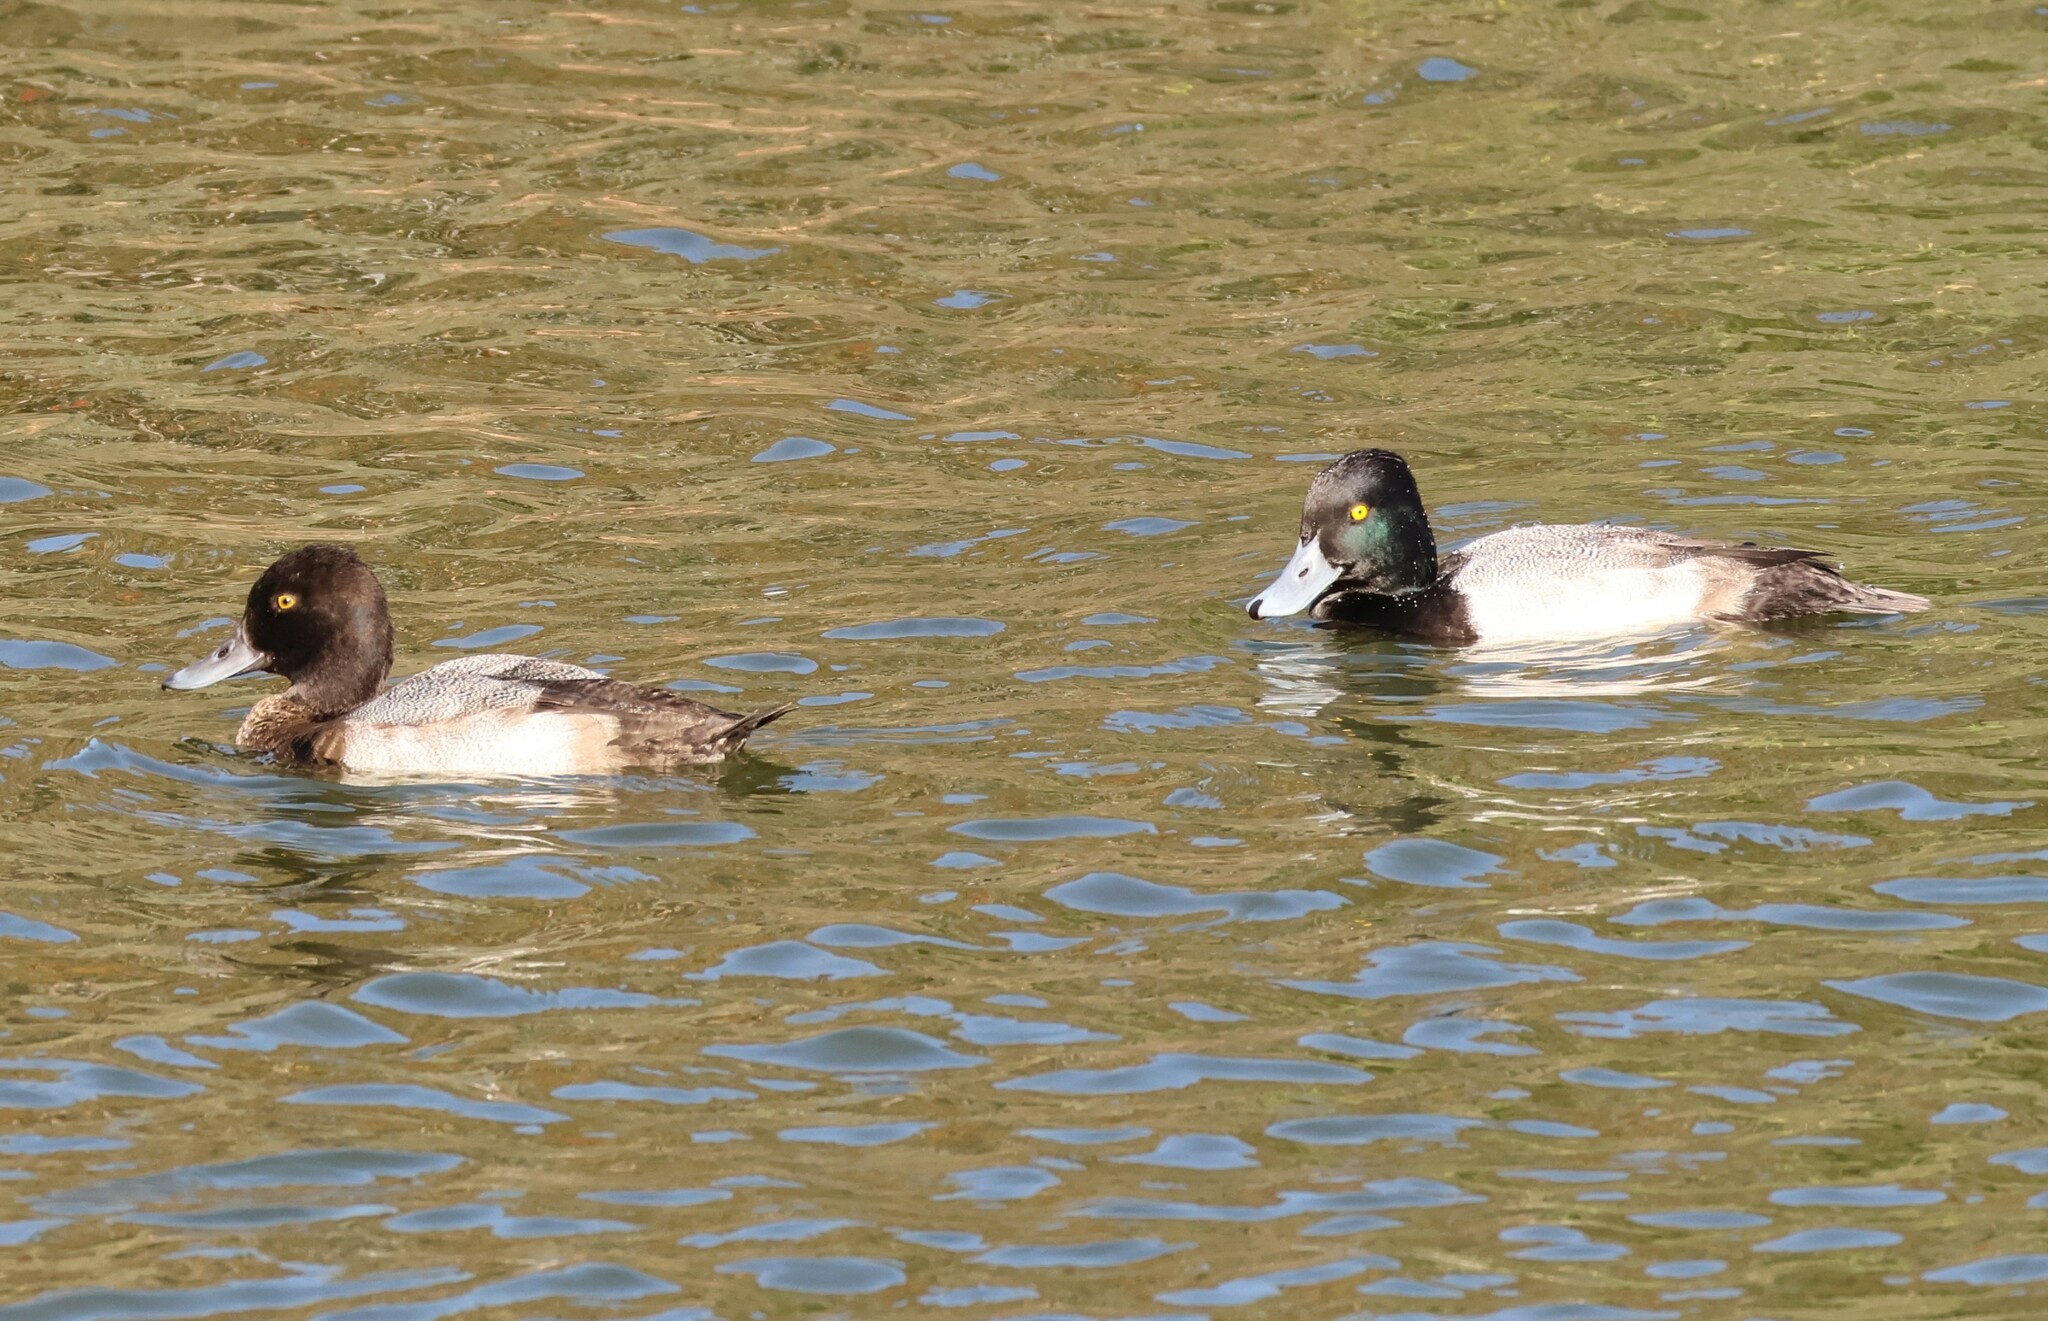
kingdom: Animalia
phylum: Chordata
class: Aves
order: Anseriformes
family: Anatidae
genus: Aythya
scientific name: Aythya affinis
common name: Lesser scaup
